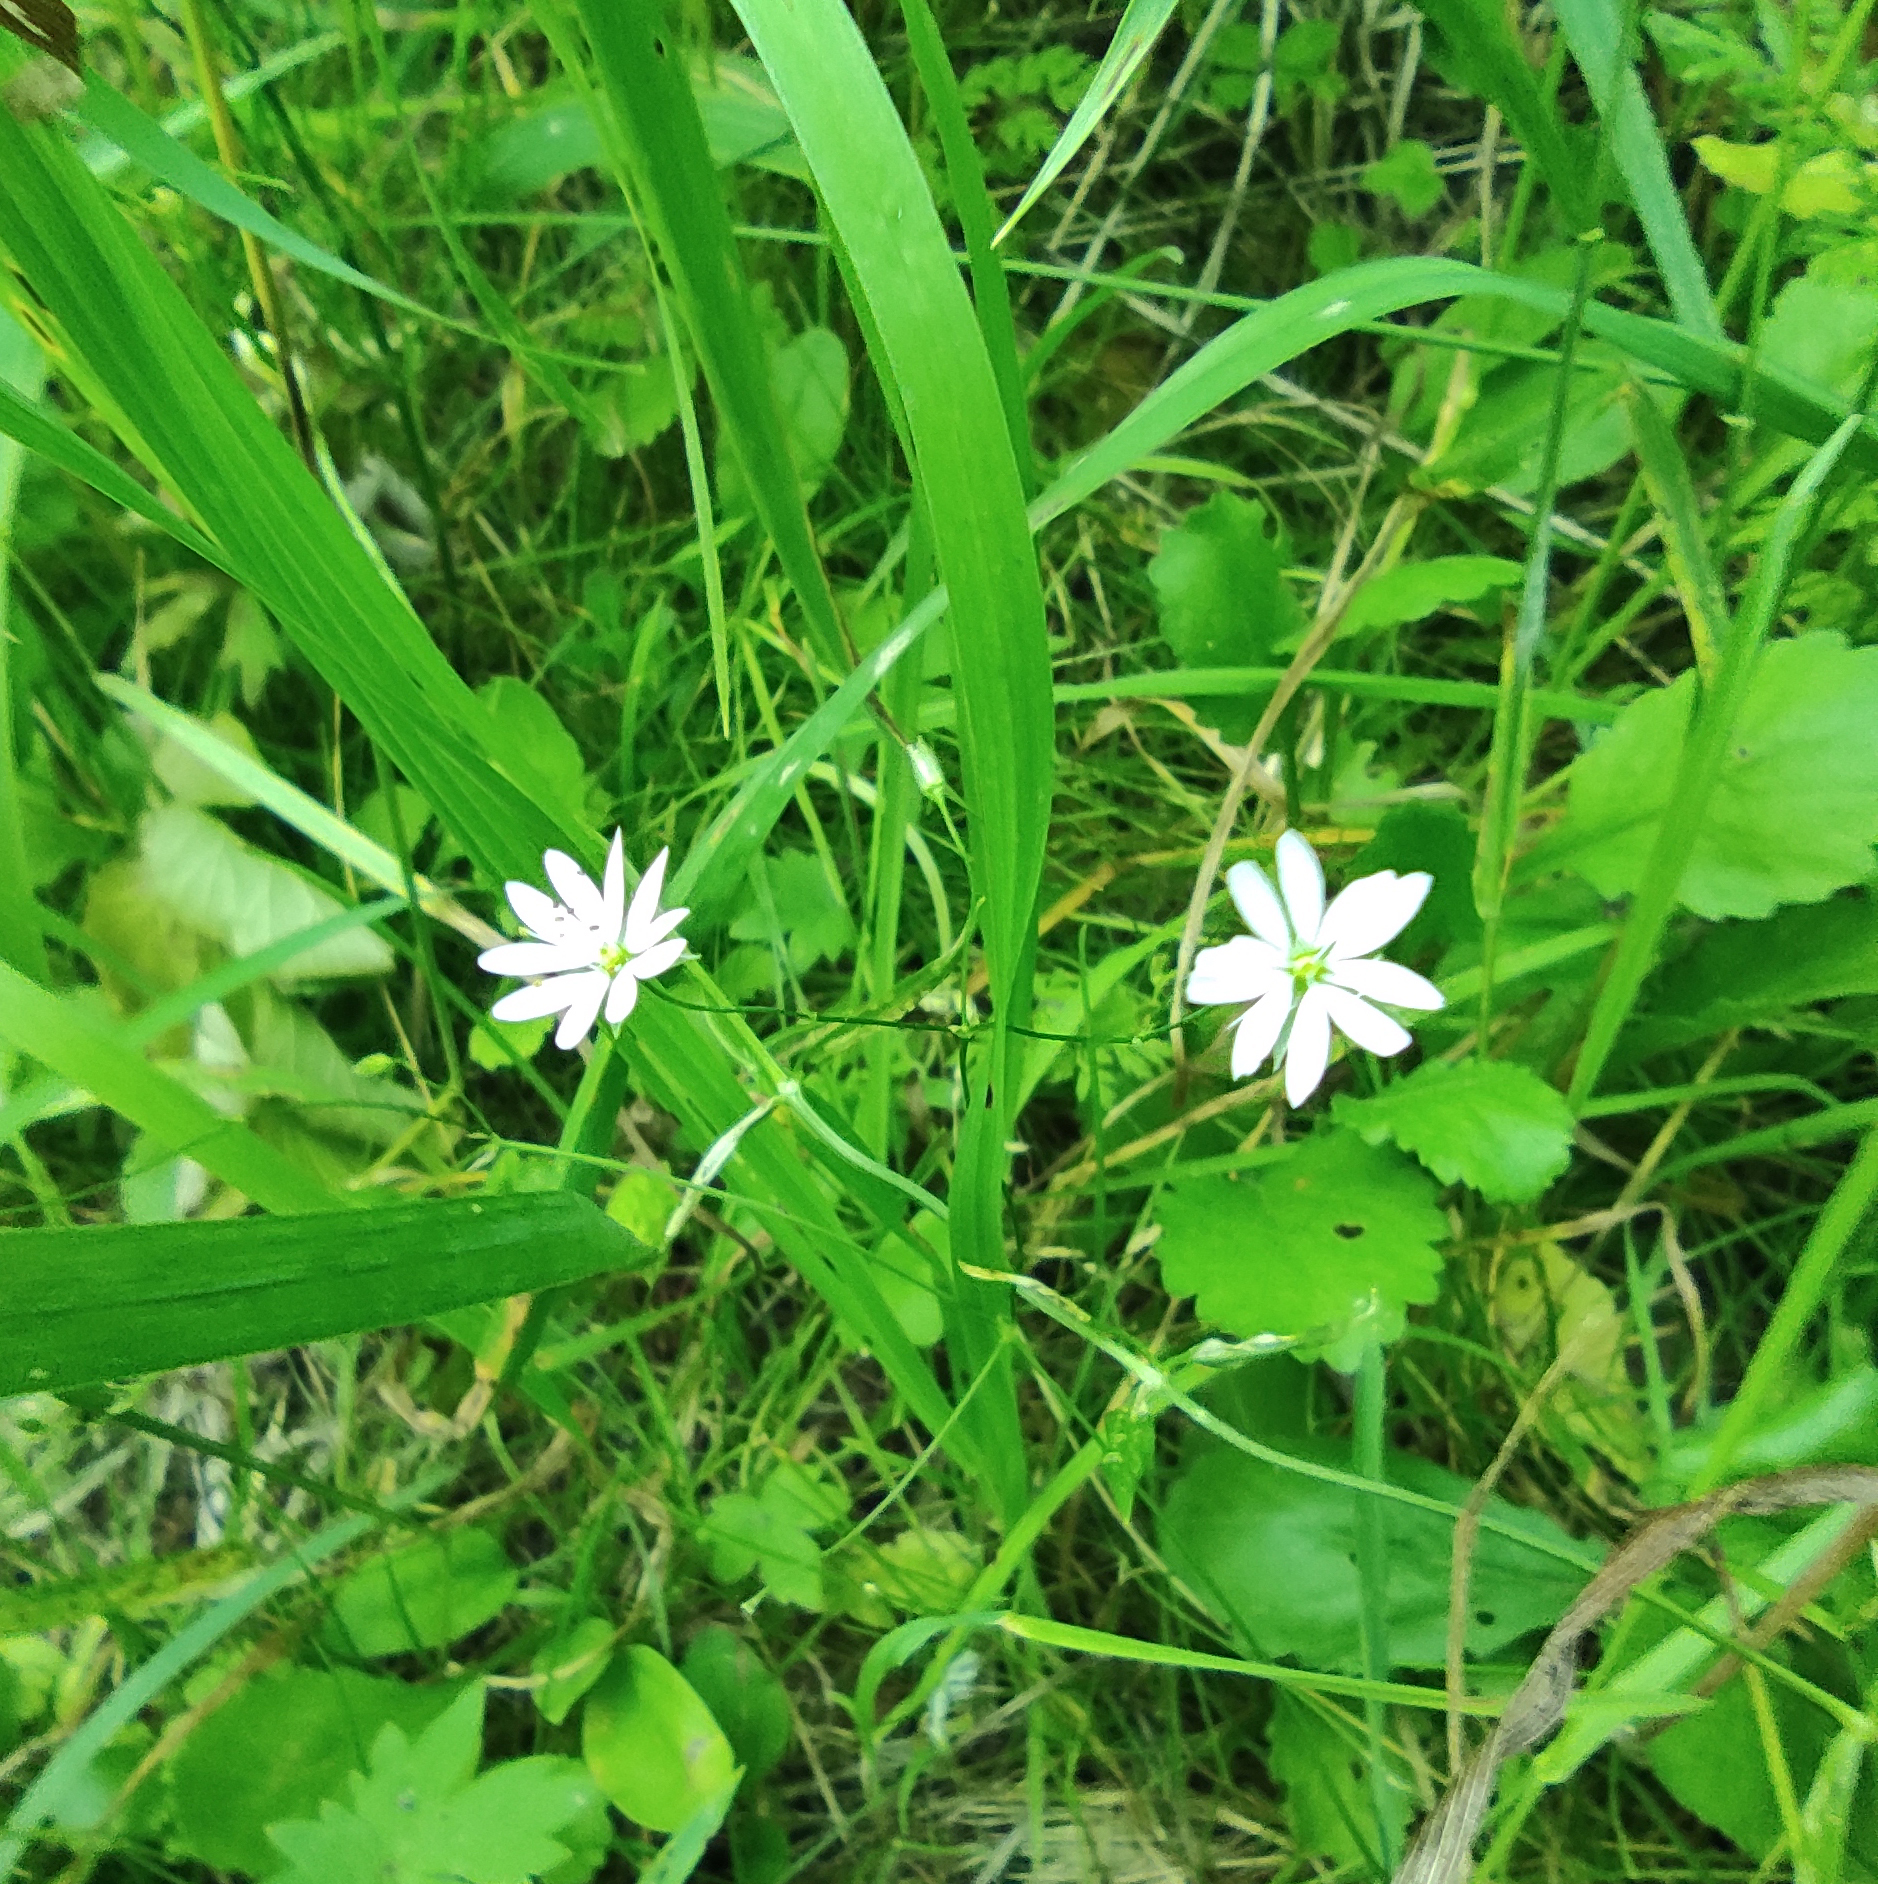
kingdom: Plantae
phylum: Tracheophyta
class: Magnoliopsida
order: Caryophyllales
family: Caryophyllaceae
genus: Stellaria
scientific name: Stellaria graminea
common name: Grass-like starwort
